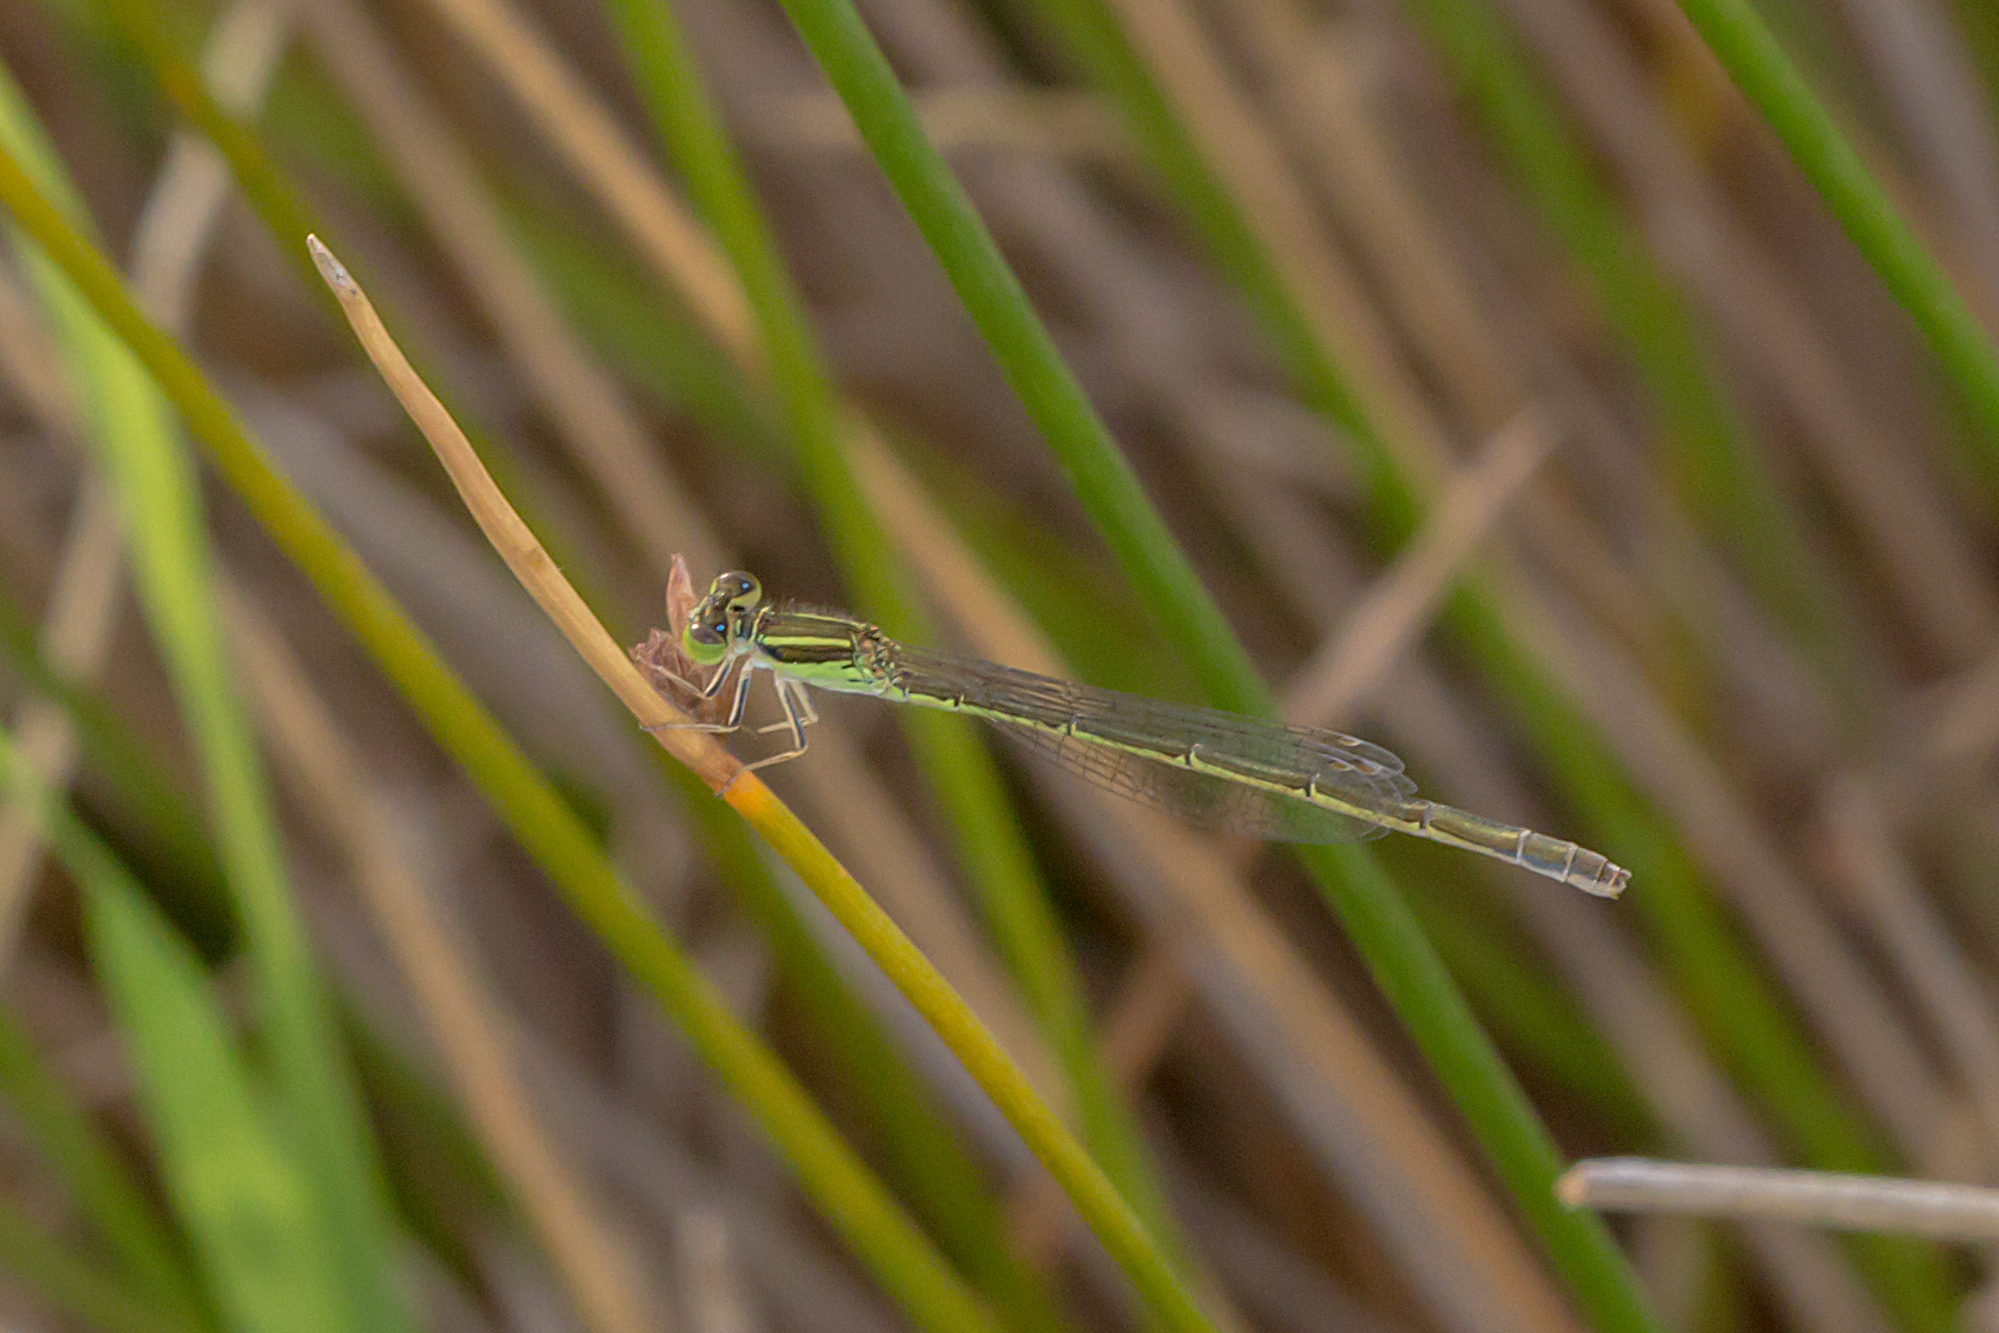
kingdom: Animalia
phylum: Arthropoda
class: Insecta
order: Odonata
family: Coenagrionidae
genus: Ischnura
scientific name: Ischnura aurora
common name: Gossamer damselfly
